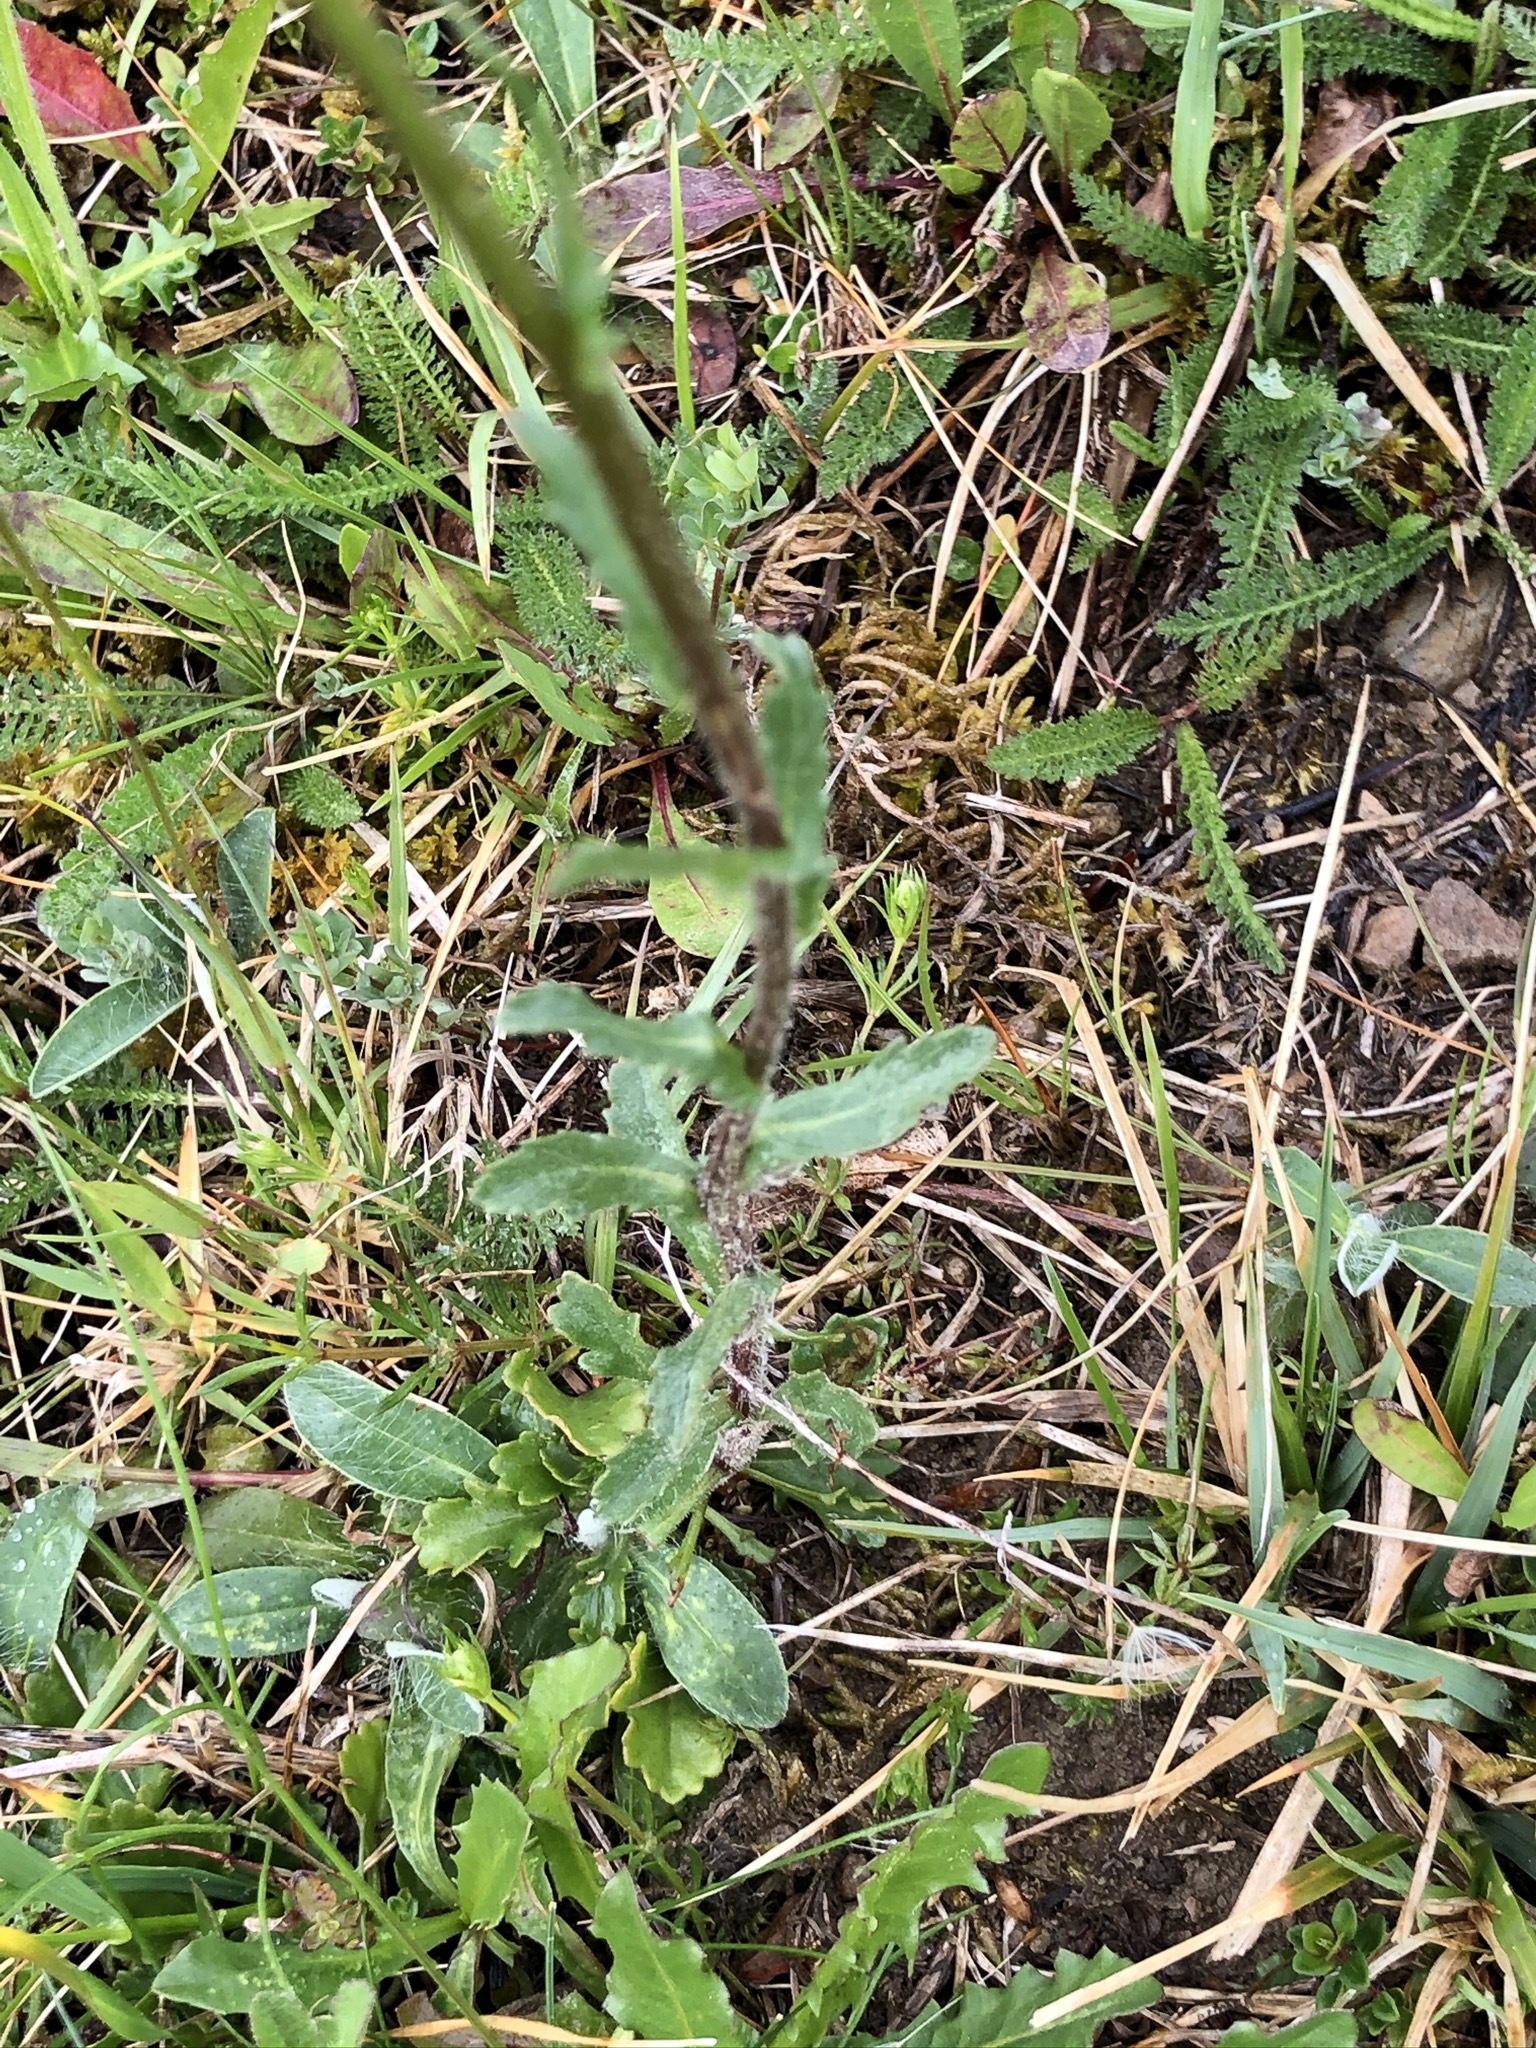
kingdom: Plantae
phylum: Tracheophyta
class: Magnoliopsida
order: Asterales
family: Asteraceae
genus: Leucanthemum
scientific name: Leucanthemum vulgare
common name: Oxeye daisy
